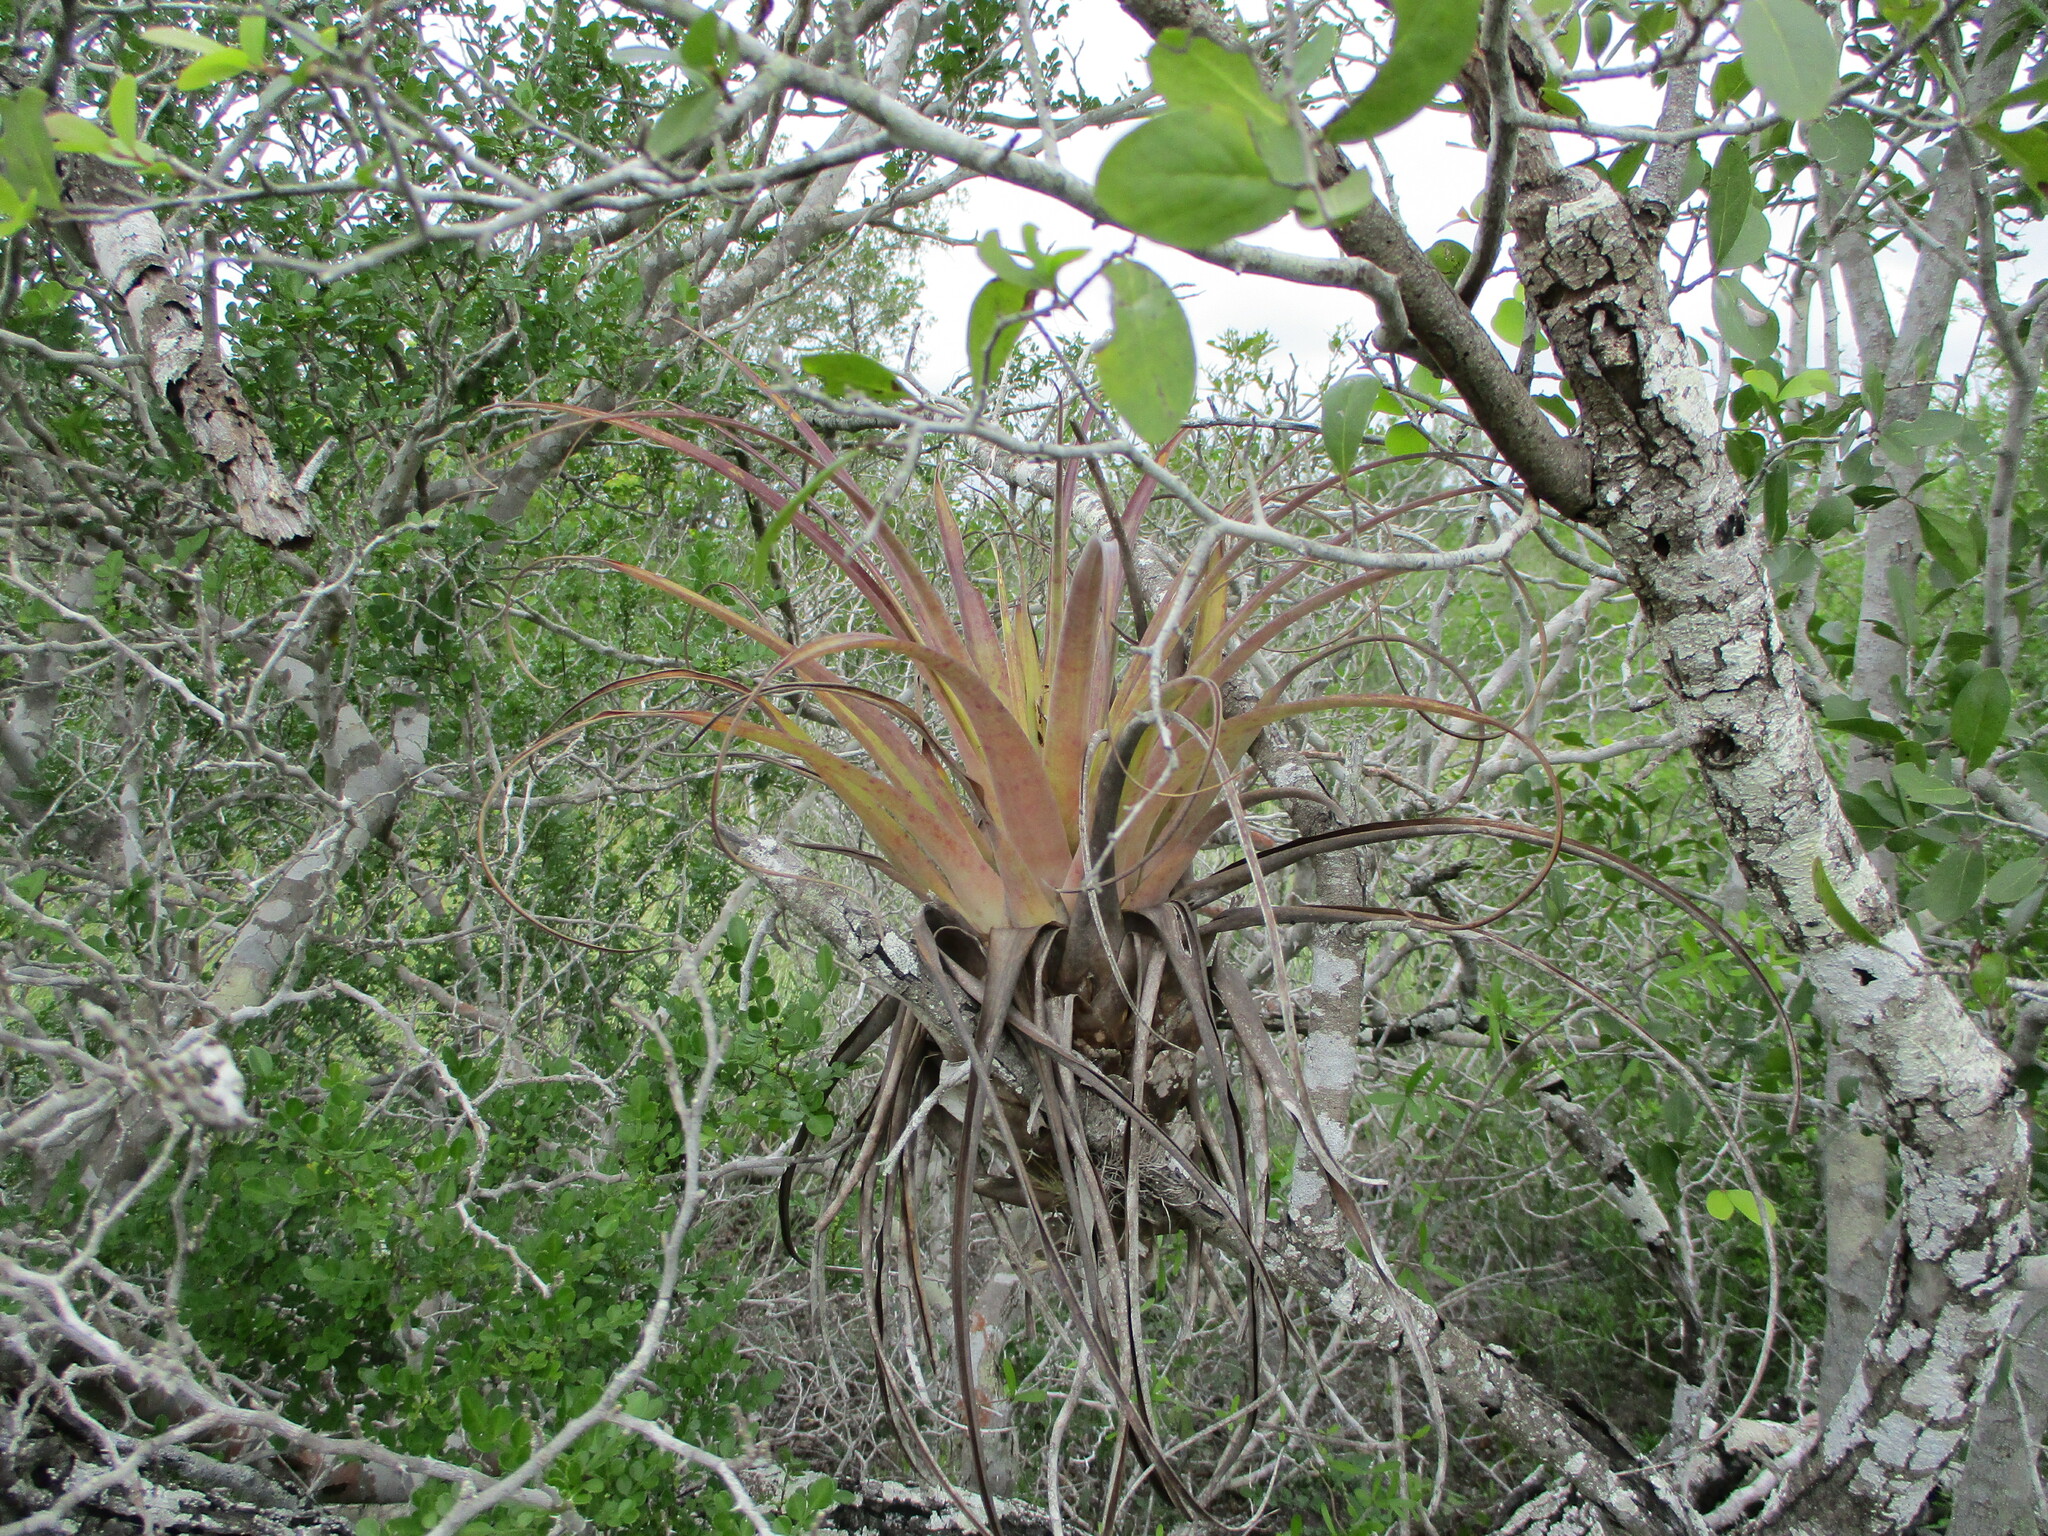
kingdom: Plantae
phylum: Tracheophyta
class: Liliopsida
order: Poales
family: Bromeliaceae
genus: Tillandsia
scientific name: Tillandsia utriculata
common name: Wild pine
